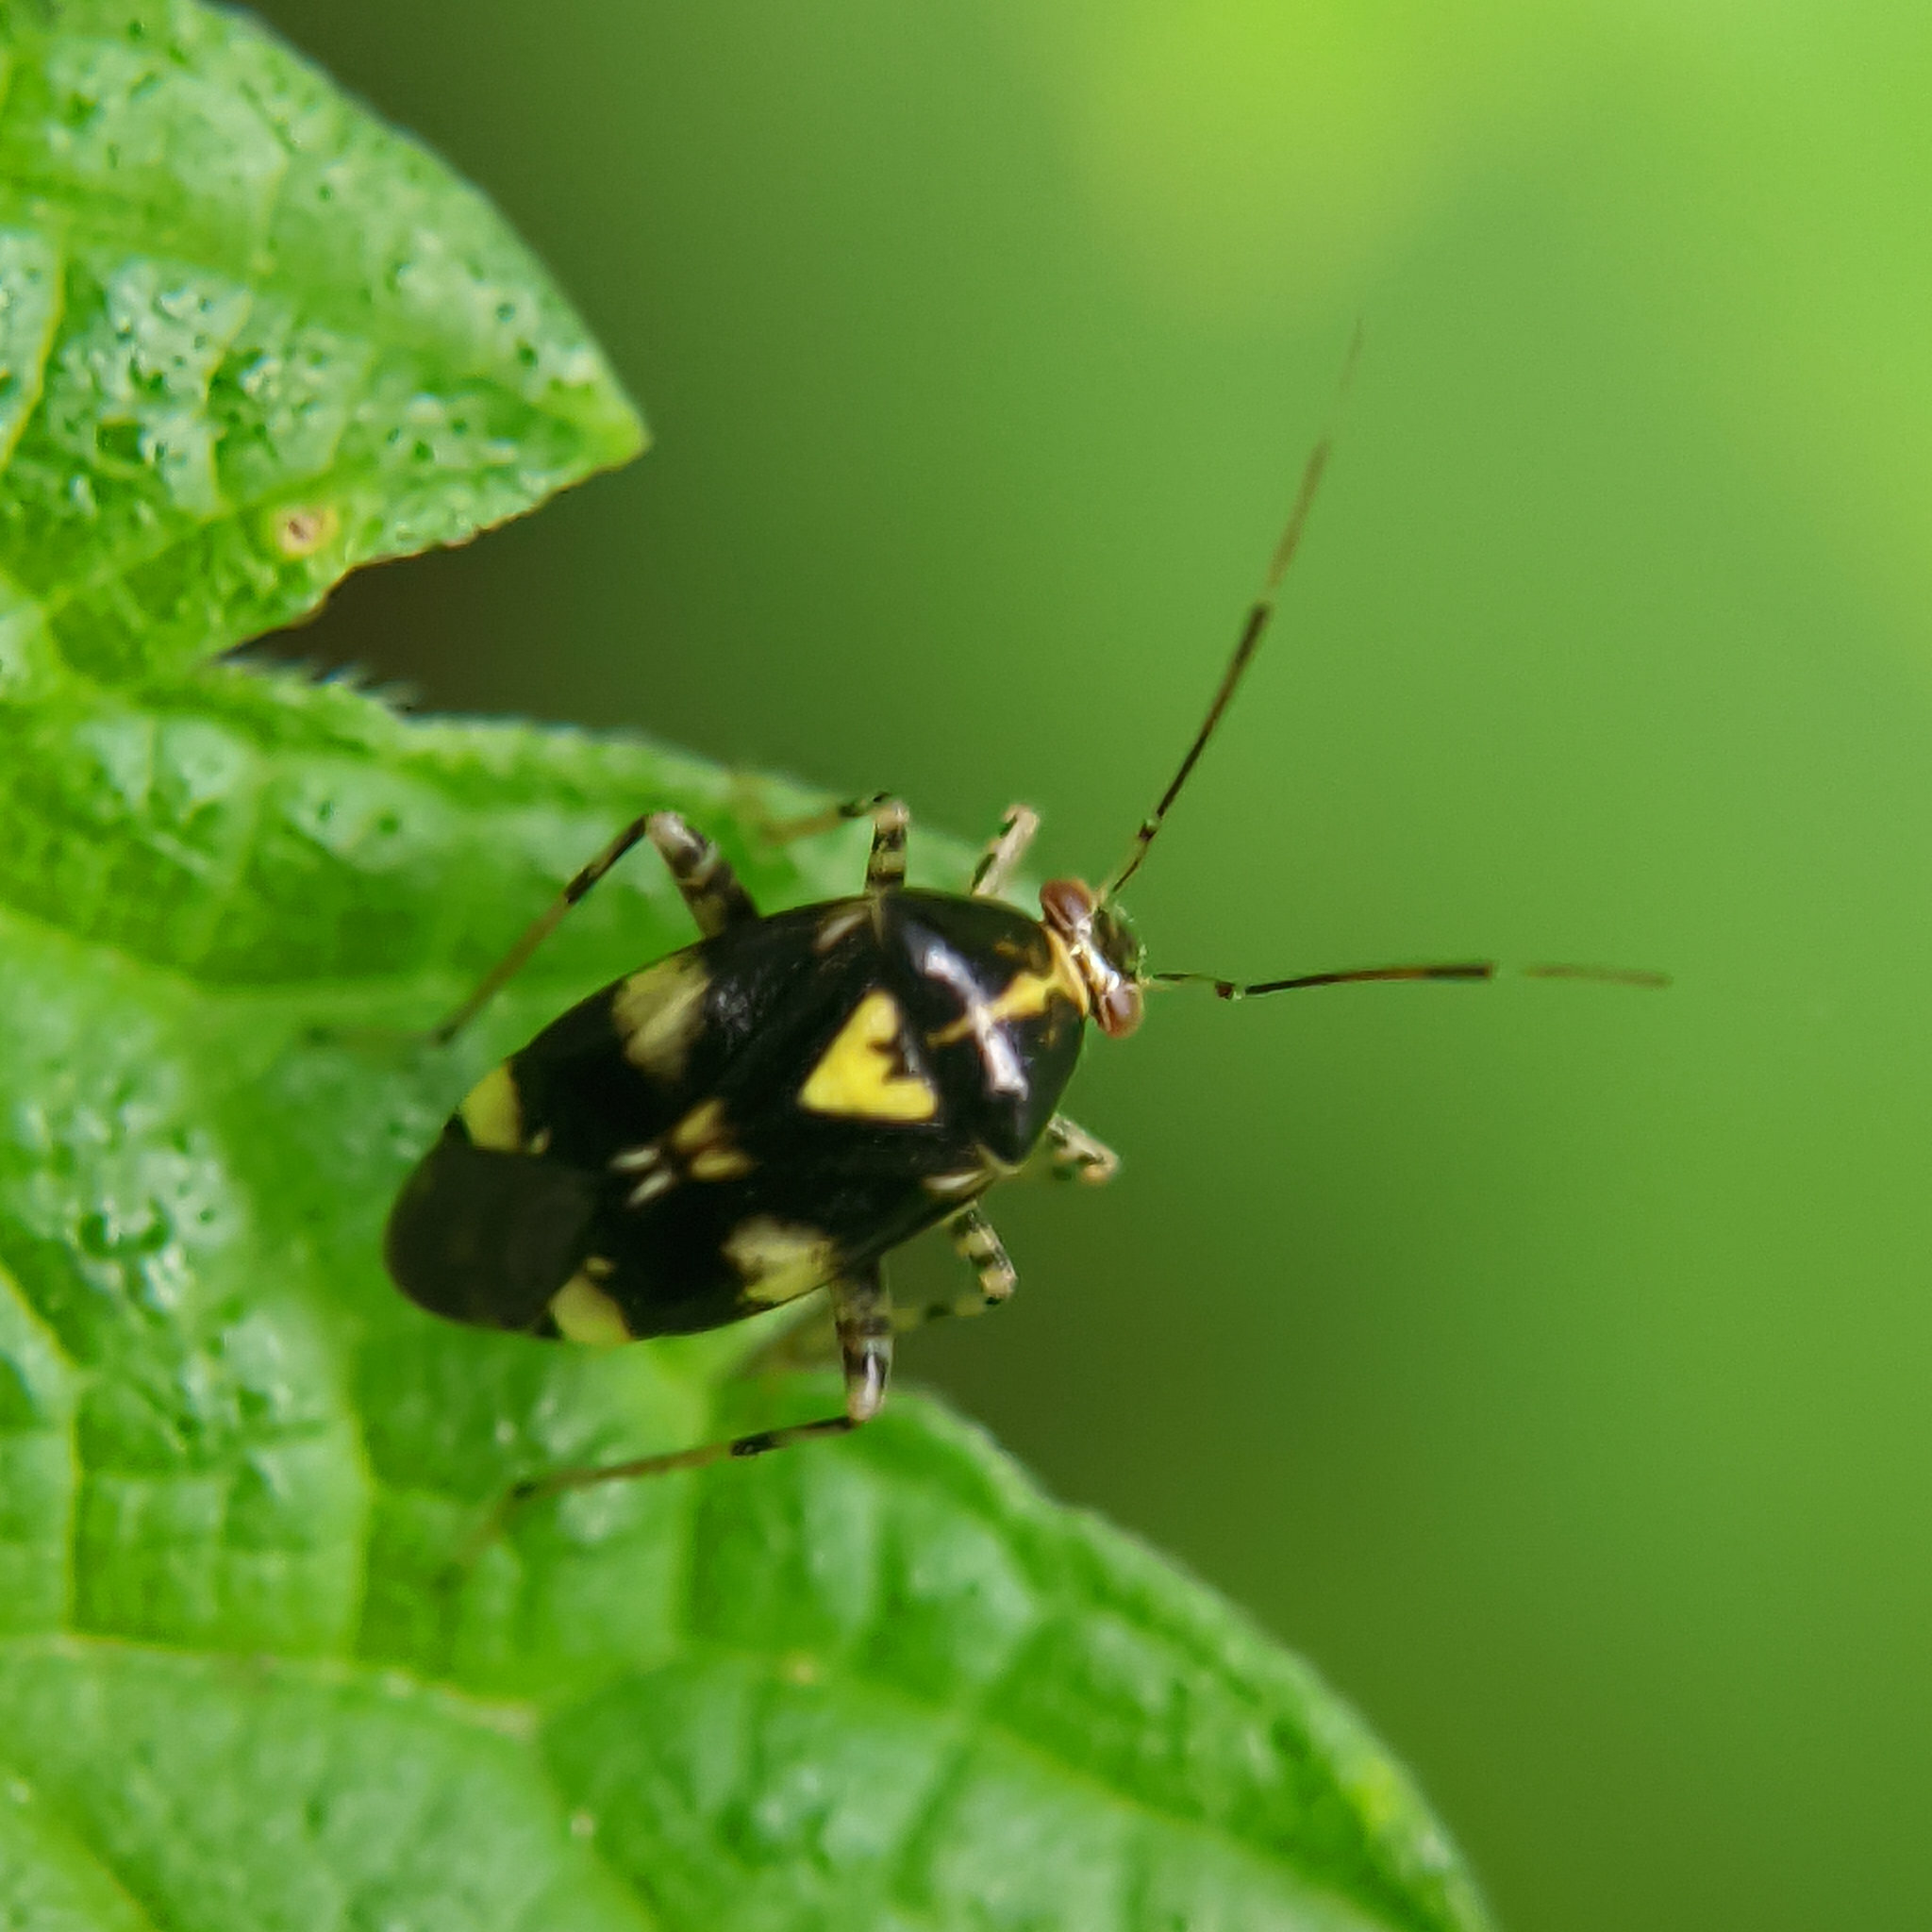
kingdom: Animalia
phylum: Arthropoda
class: Insecta
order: Hemiptera
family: Miridae
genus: Liocoris
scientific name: Liocoris tripustulatus
